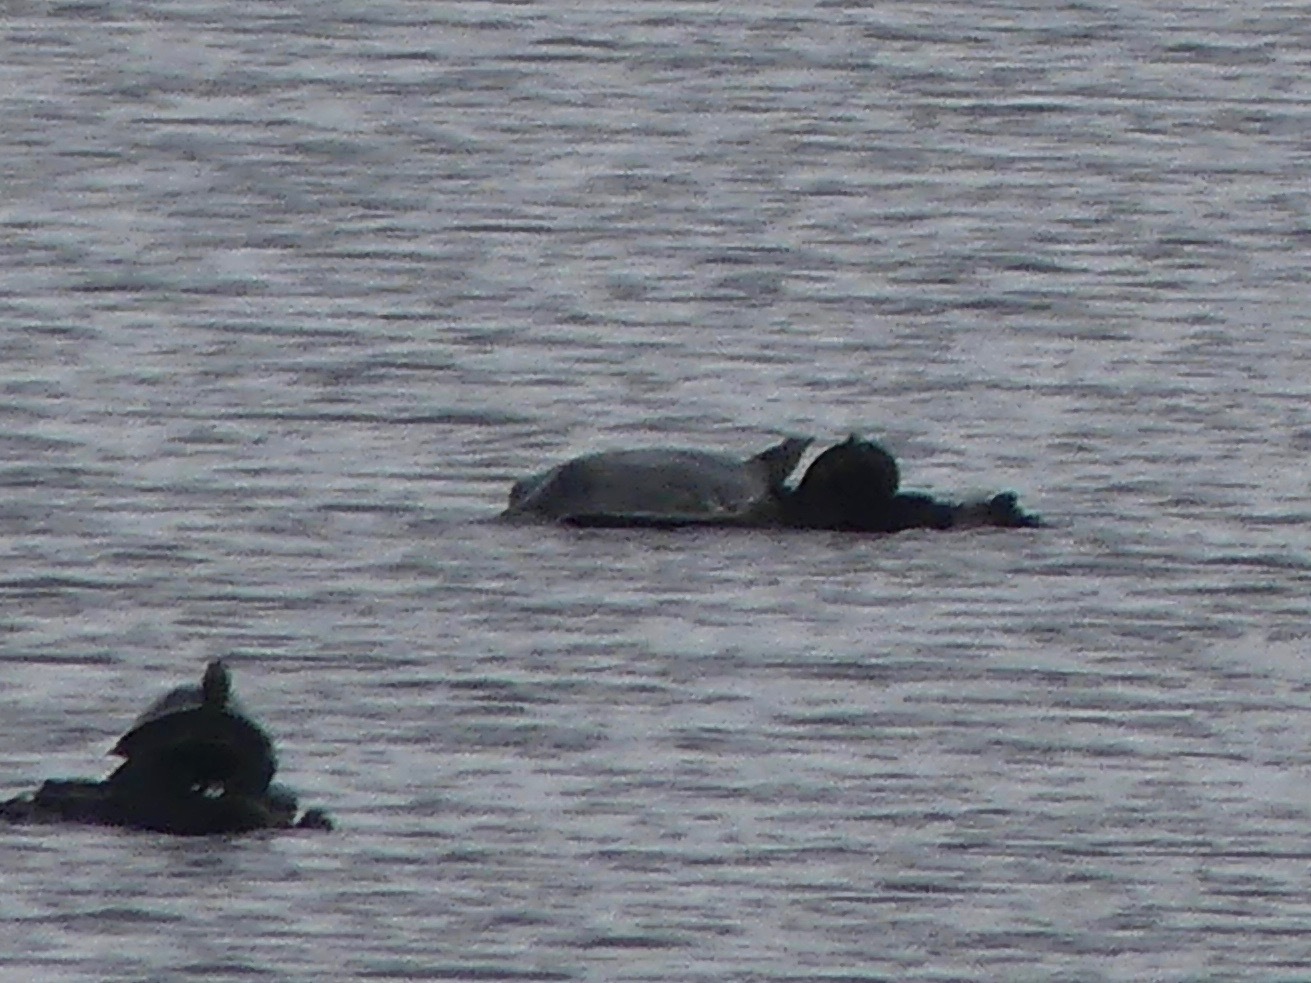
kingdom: Animalia
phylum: Chordata
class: Testudines
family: Trionychidae
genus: Apalone
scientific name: Apalone spinifera
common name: Spiny softshell turtle
